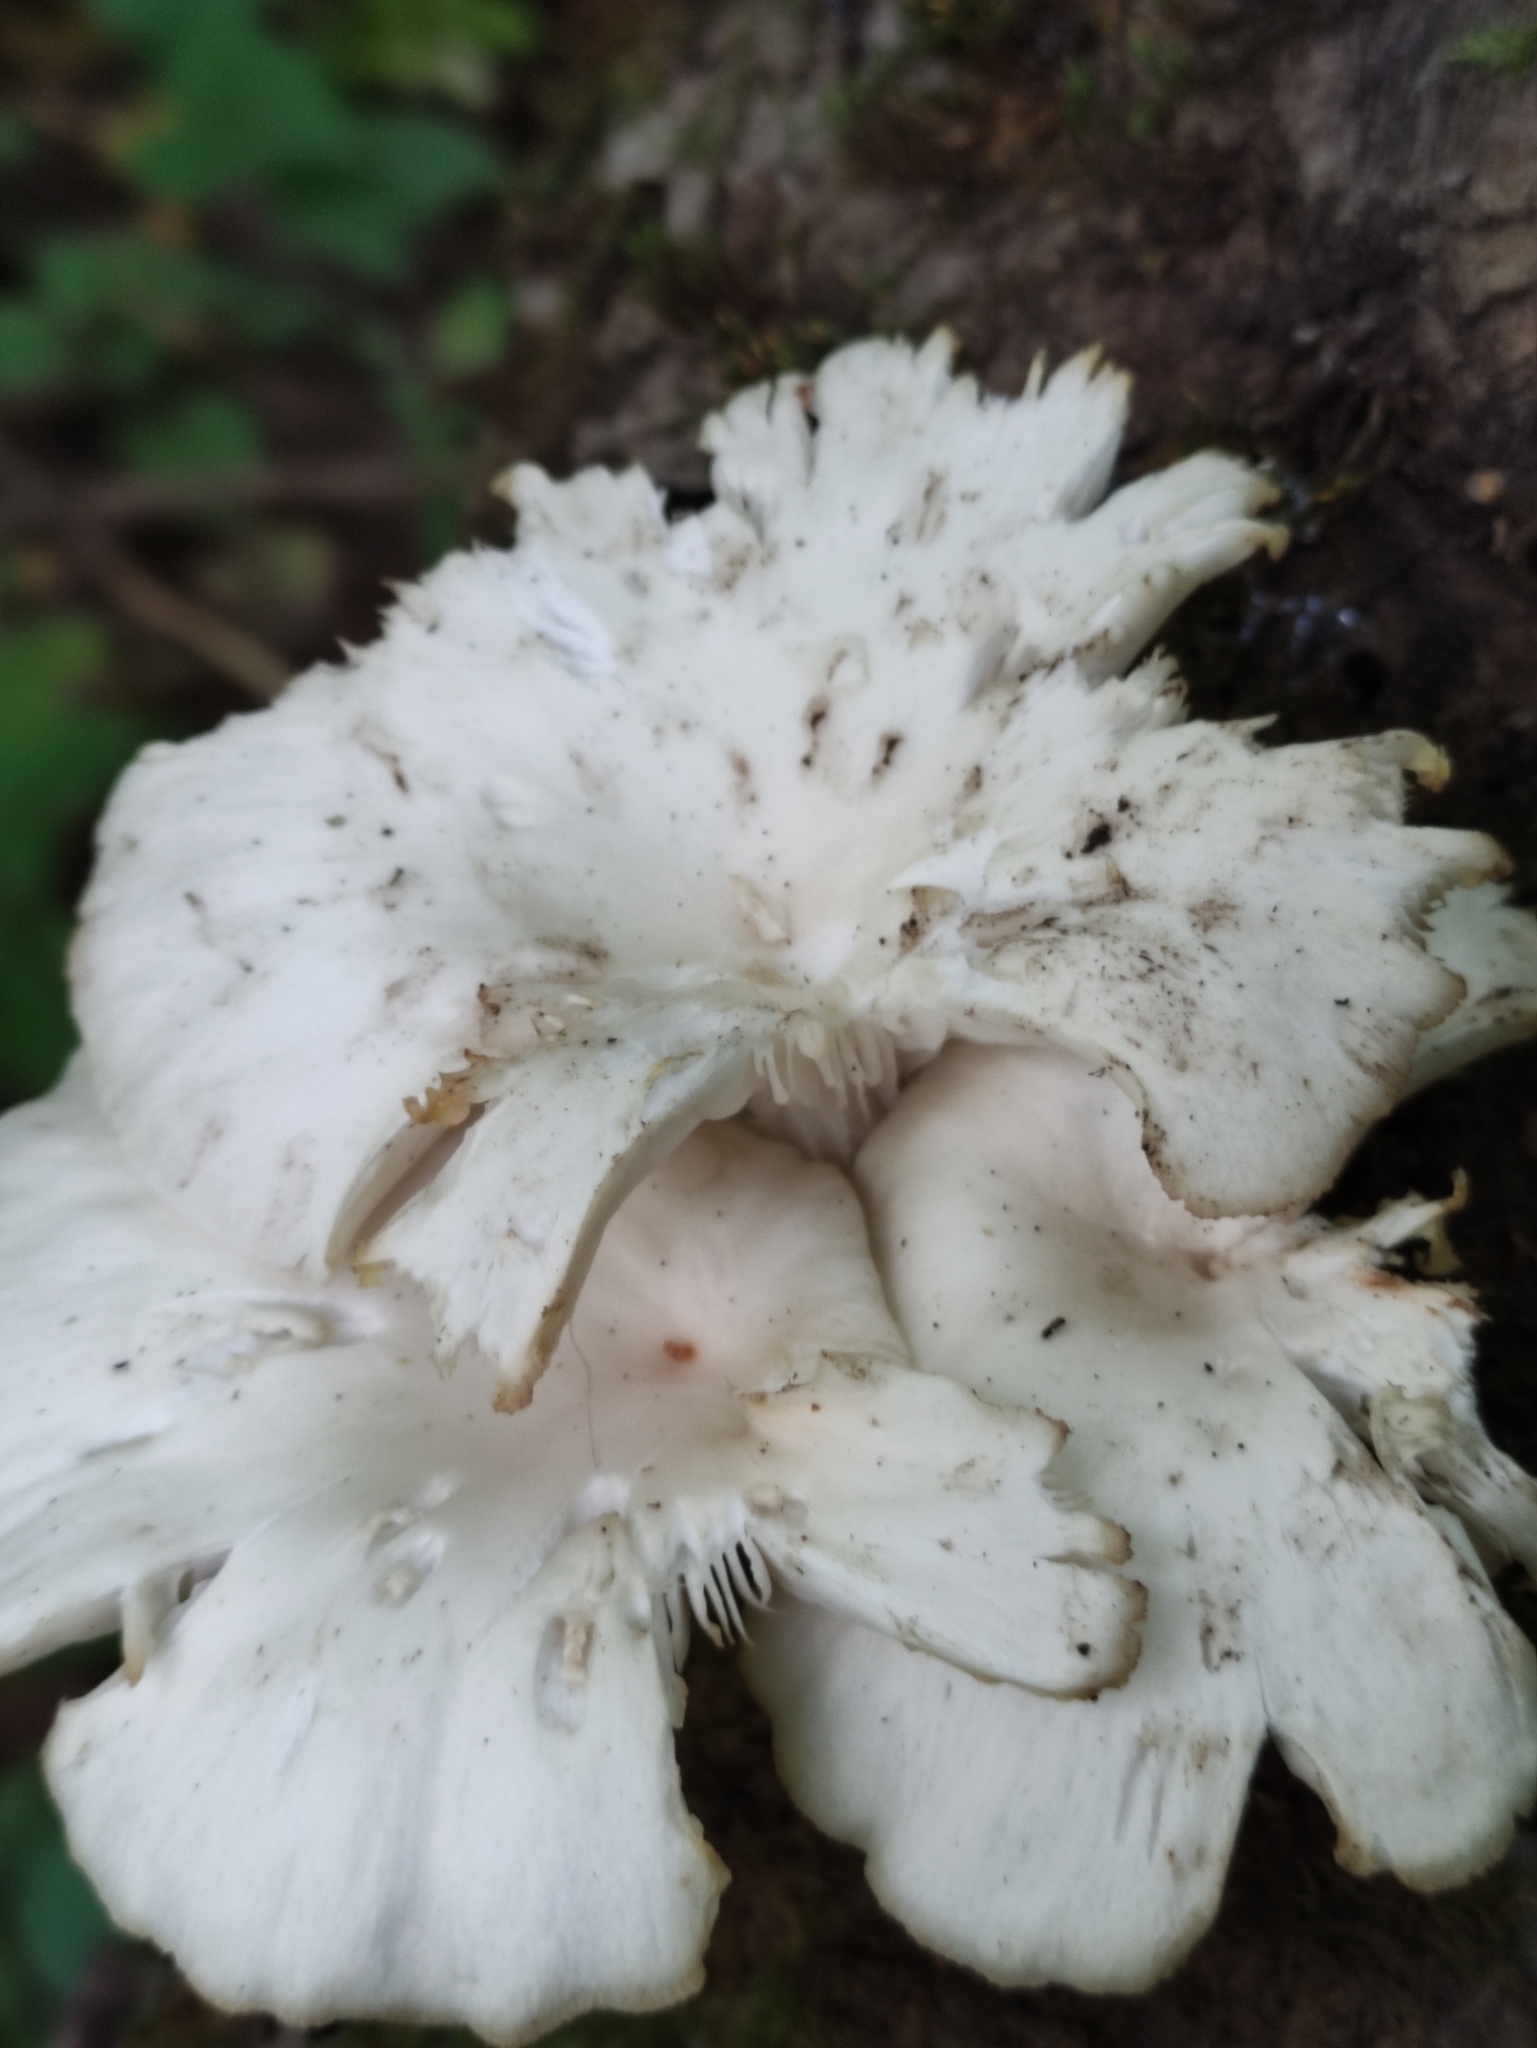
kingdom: Fungi
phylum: Basidiomycota
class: Agaricomycetes
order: Agaricales
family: Pleurotaceae
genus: Pleurotus
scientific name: Pleurotus pulmonarius
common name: Pale oyster
